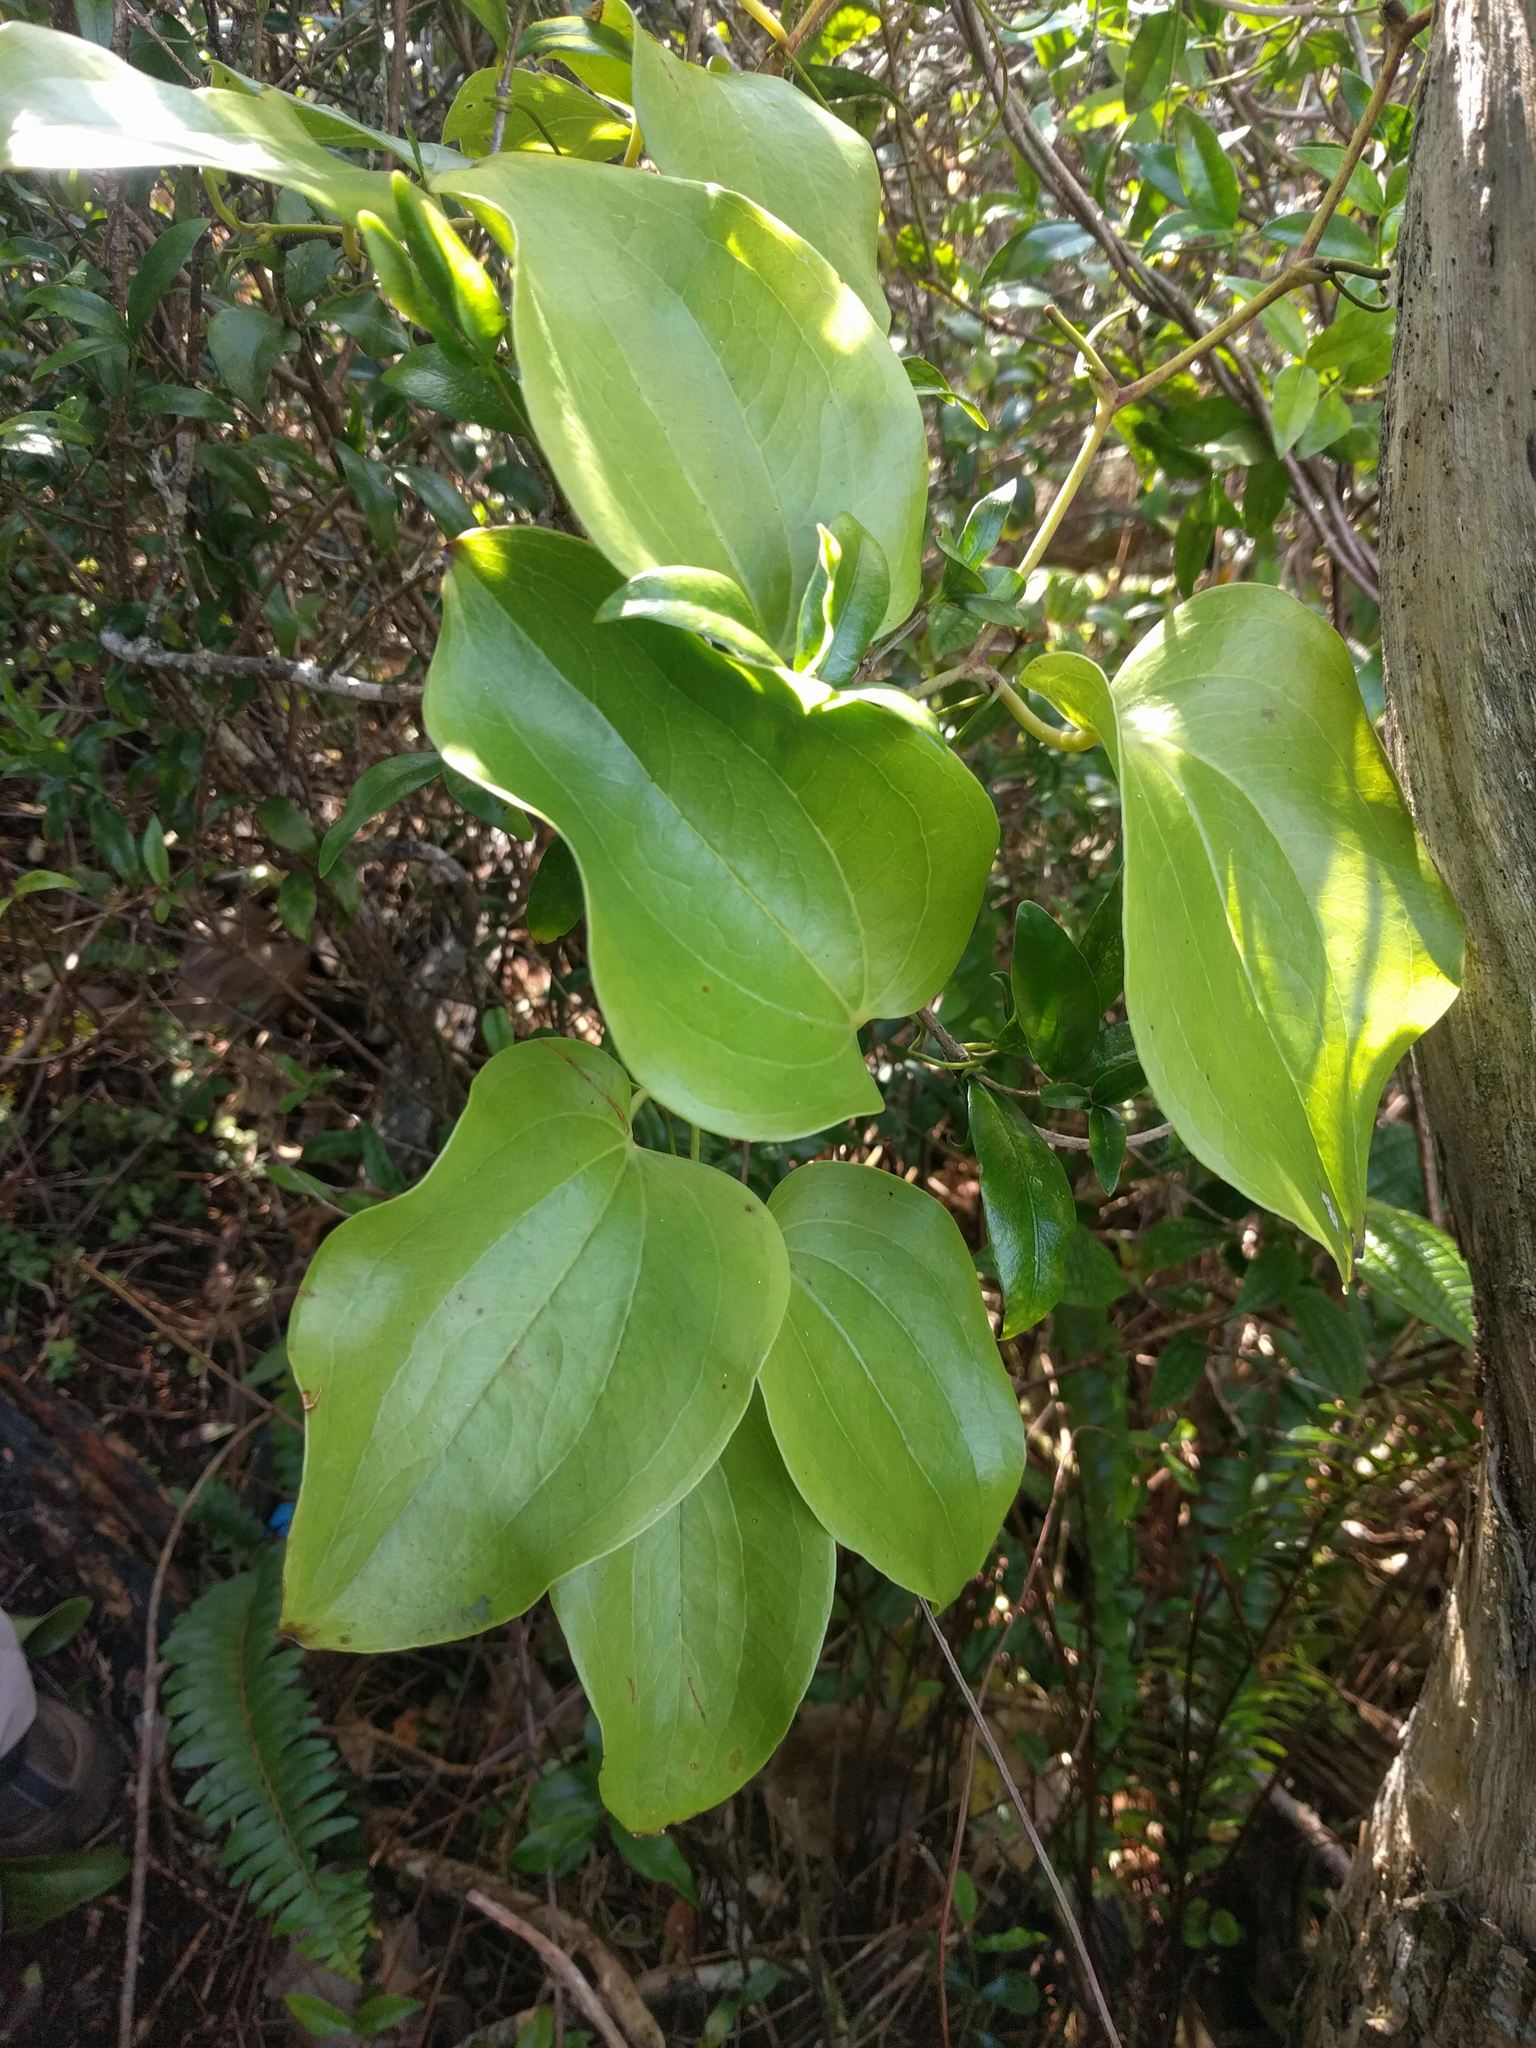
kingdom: Plantae
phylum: Tracheophyta
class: Liliopsida
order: Liliales
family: Smilacaceae
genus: Smilax
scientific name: Smilax melastomifolia
